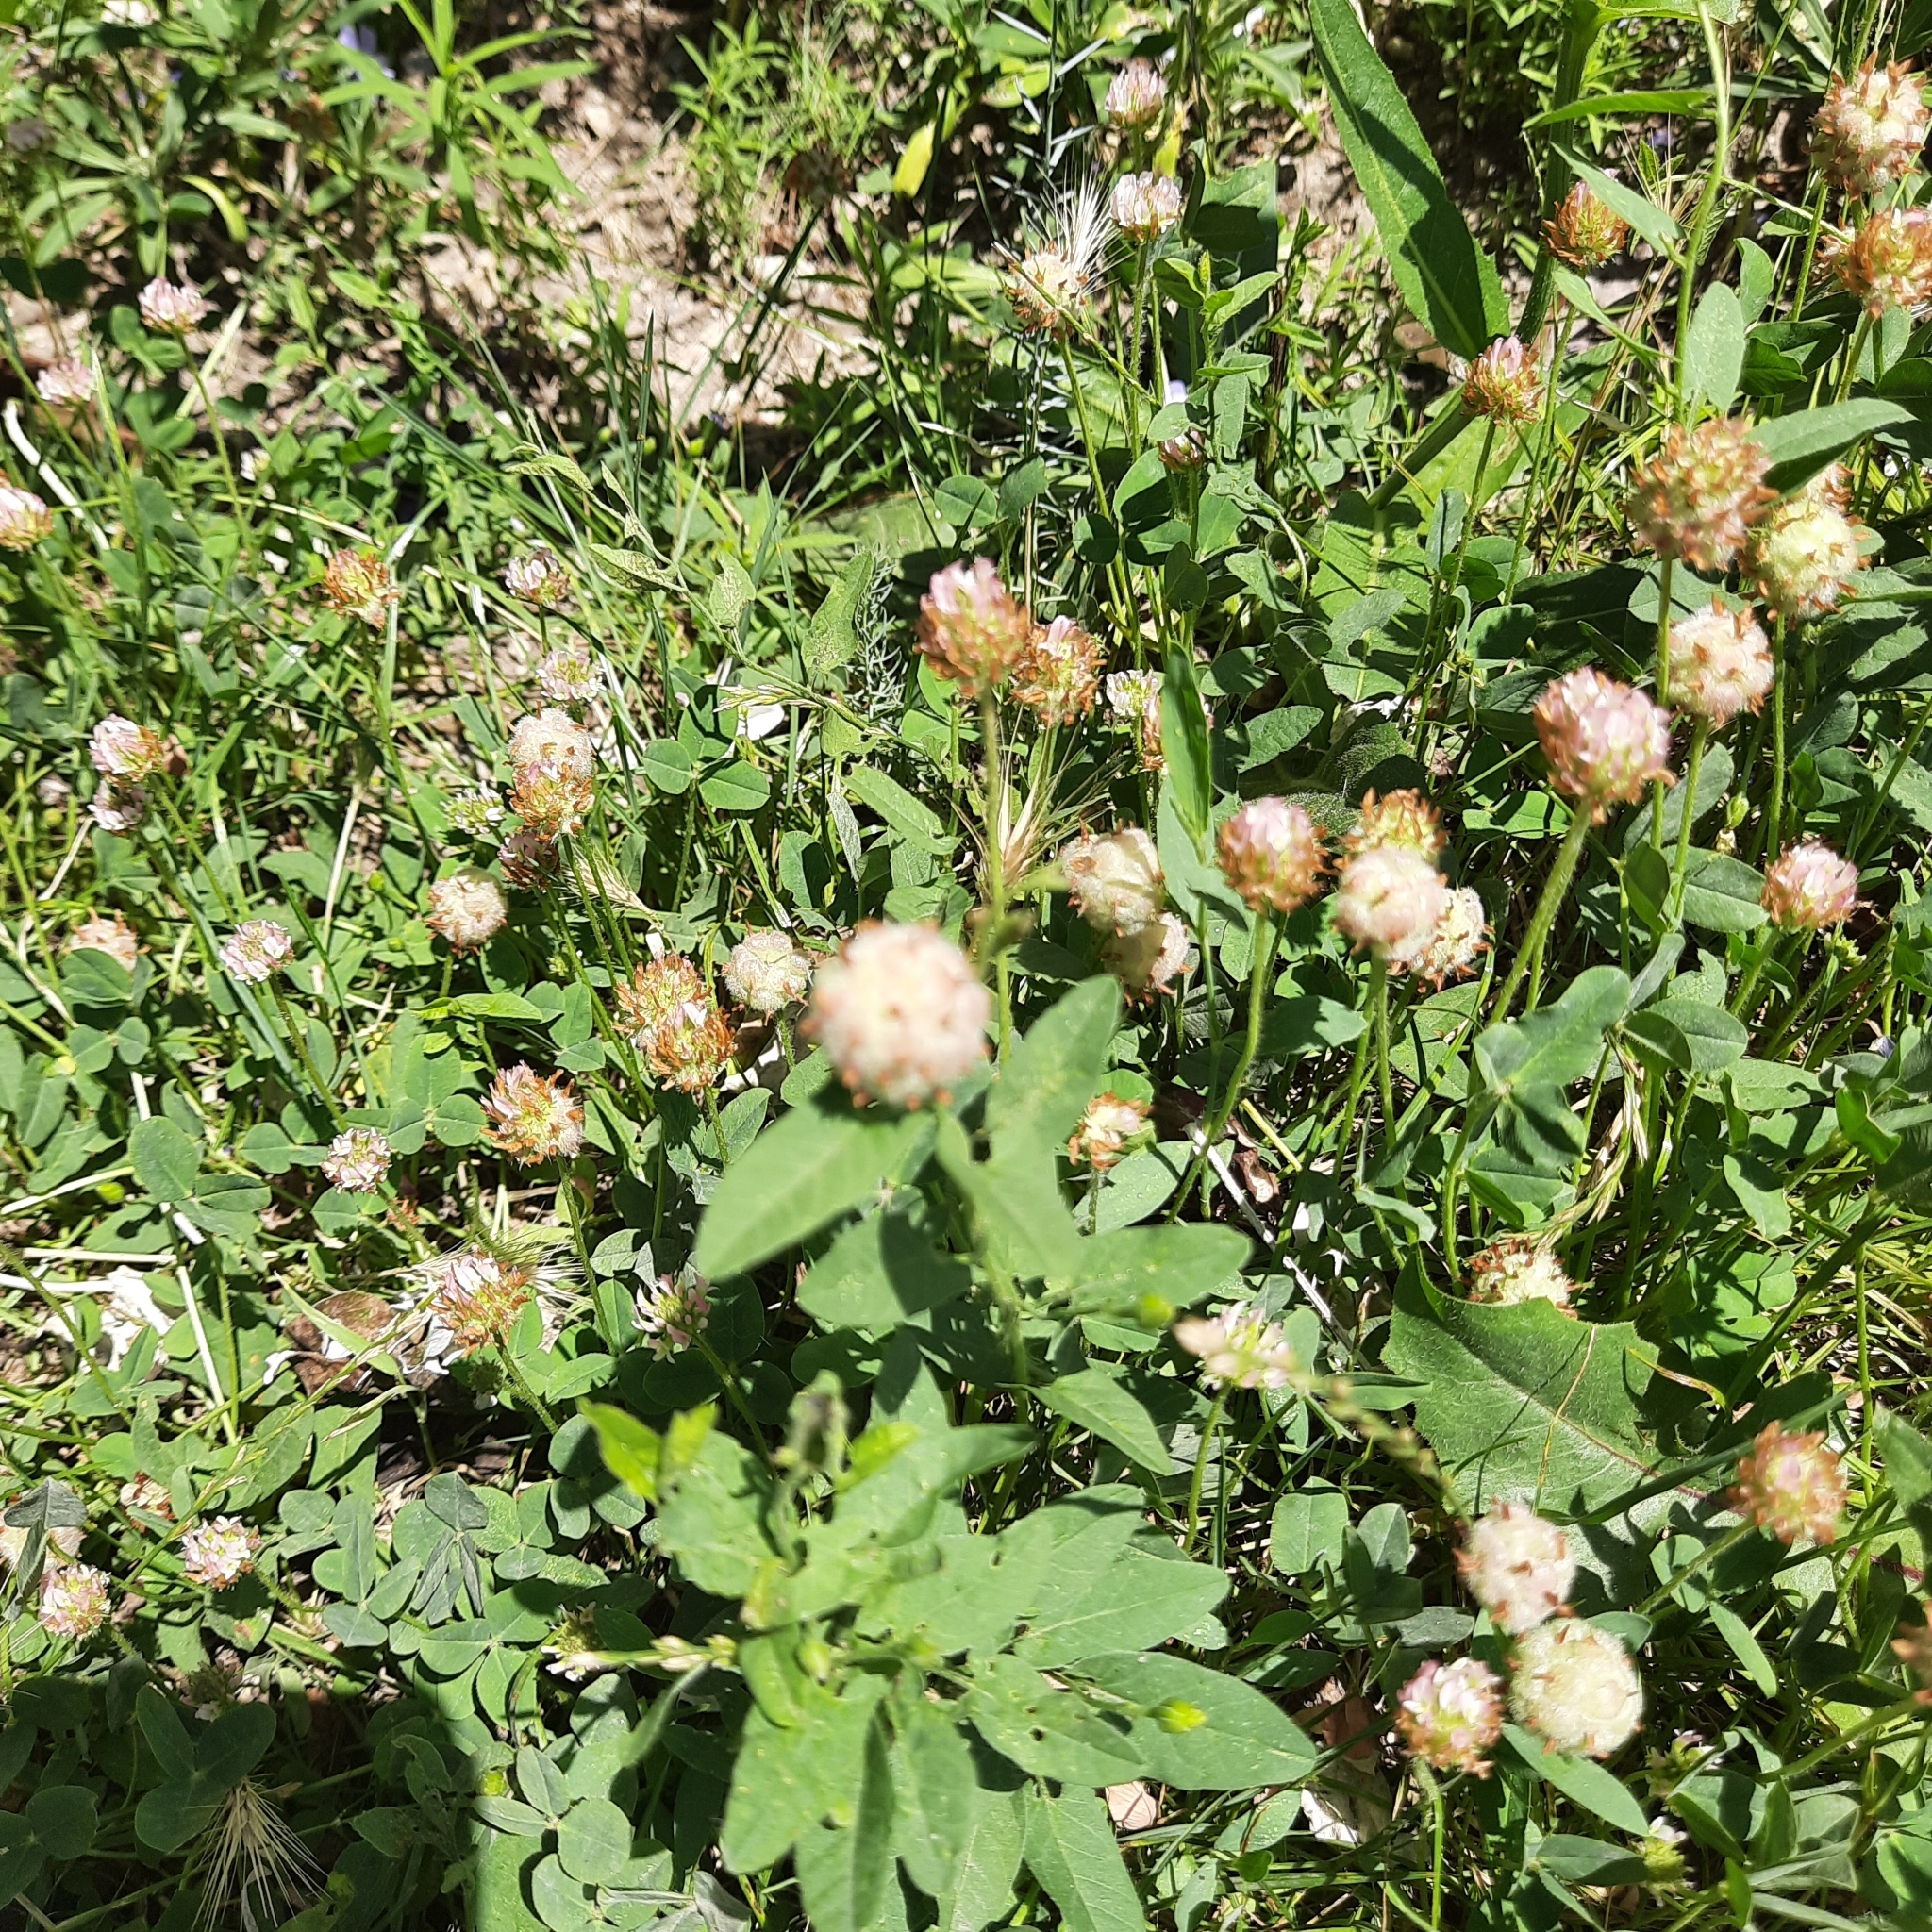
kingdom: Plantae
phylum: Tracheophyta
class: Magnoliopsida
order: Fabales
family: Fabaceae
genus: Trifolium
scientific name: Trifolium fragiferum
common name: Strawberry clover
